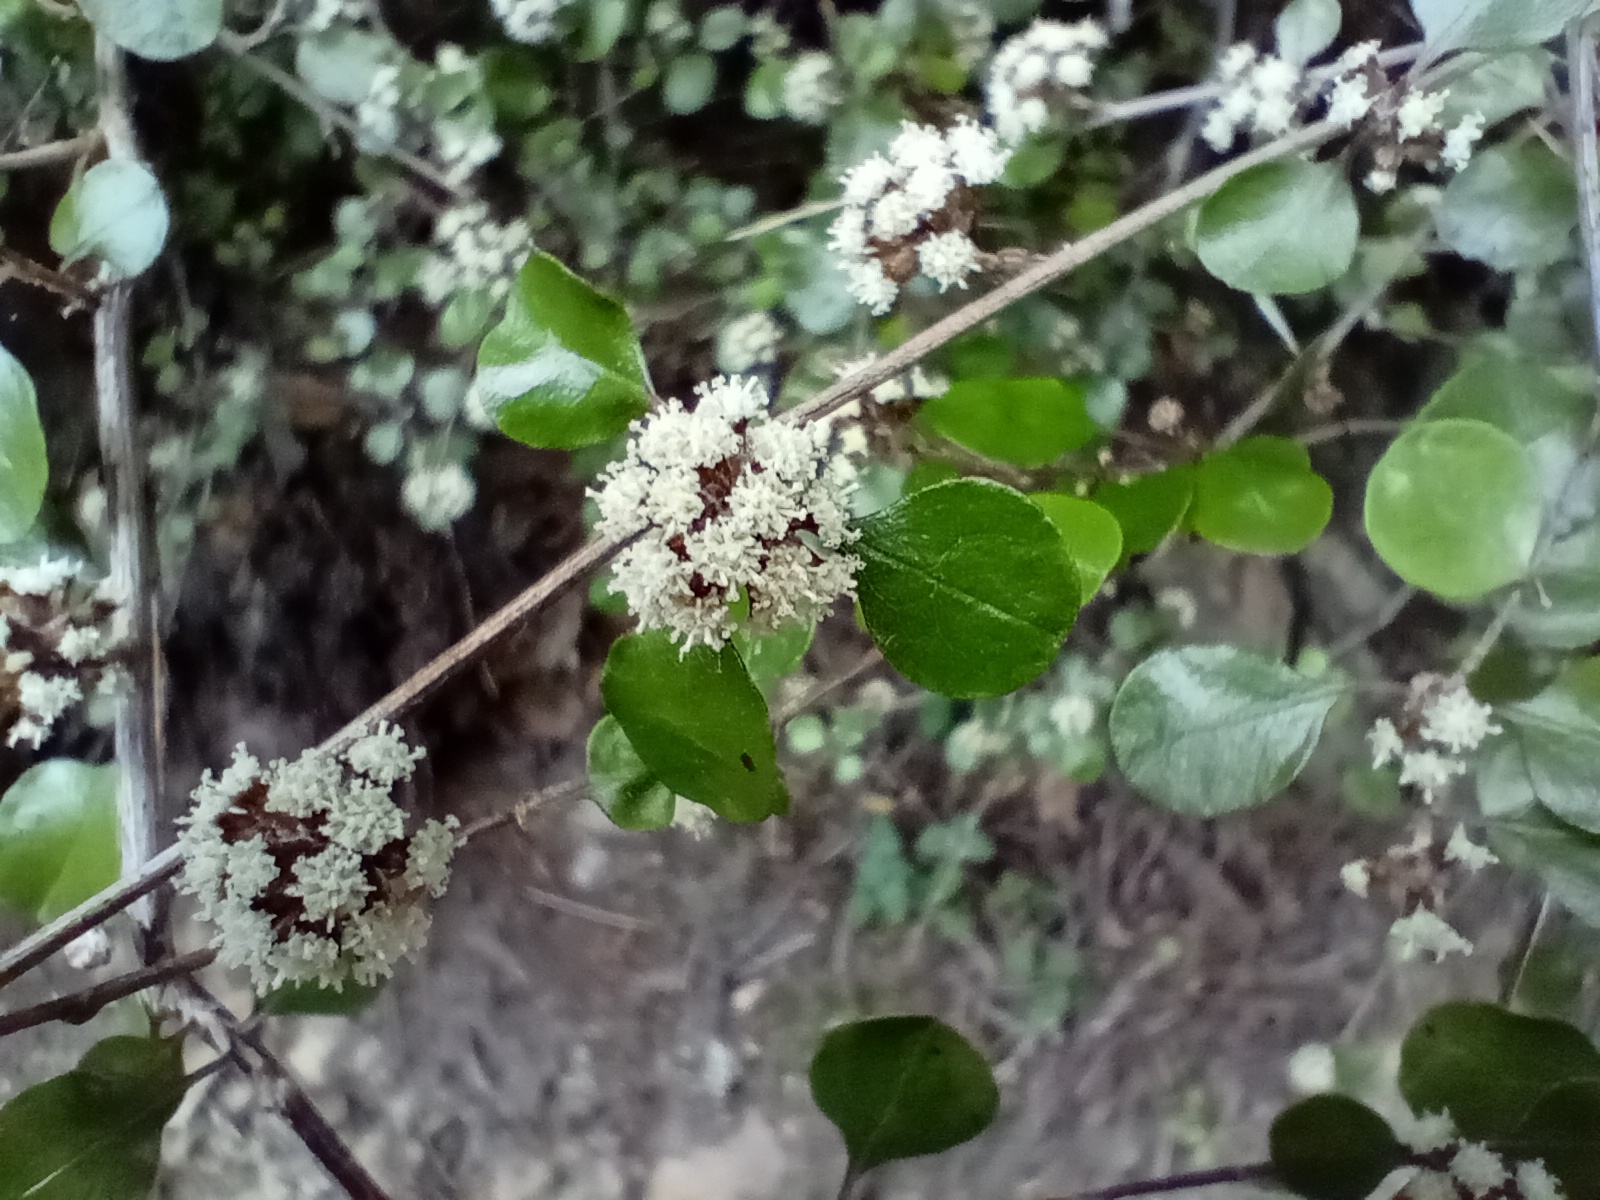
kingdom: Plantae
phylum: Tracheophyta
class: Magnoliopsida
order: Asterales
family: Asteraceae
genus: Ozothamnus
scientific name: Ozothamnus glomeratus
